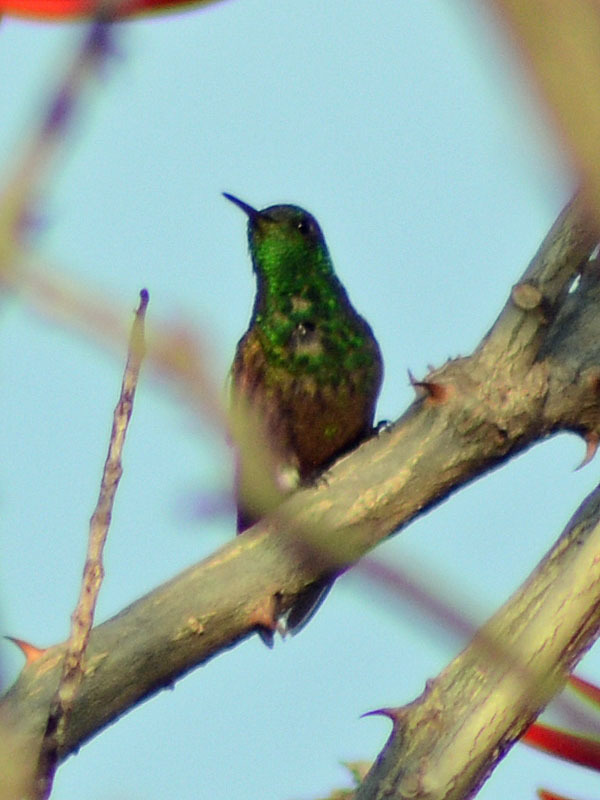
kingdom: Animalia
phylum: Chordata
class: Aves
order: Apodiformes
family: Trochilidae
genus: Saucerottia
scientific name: Saucerottia beryllina
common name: Berylline hummingbird
